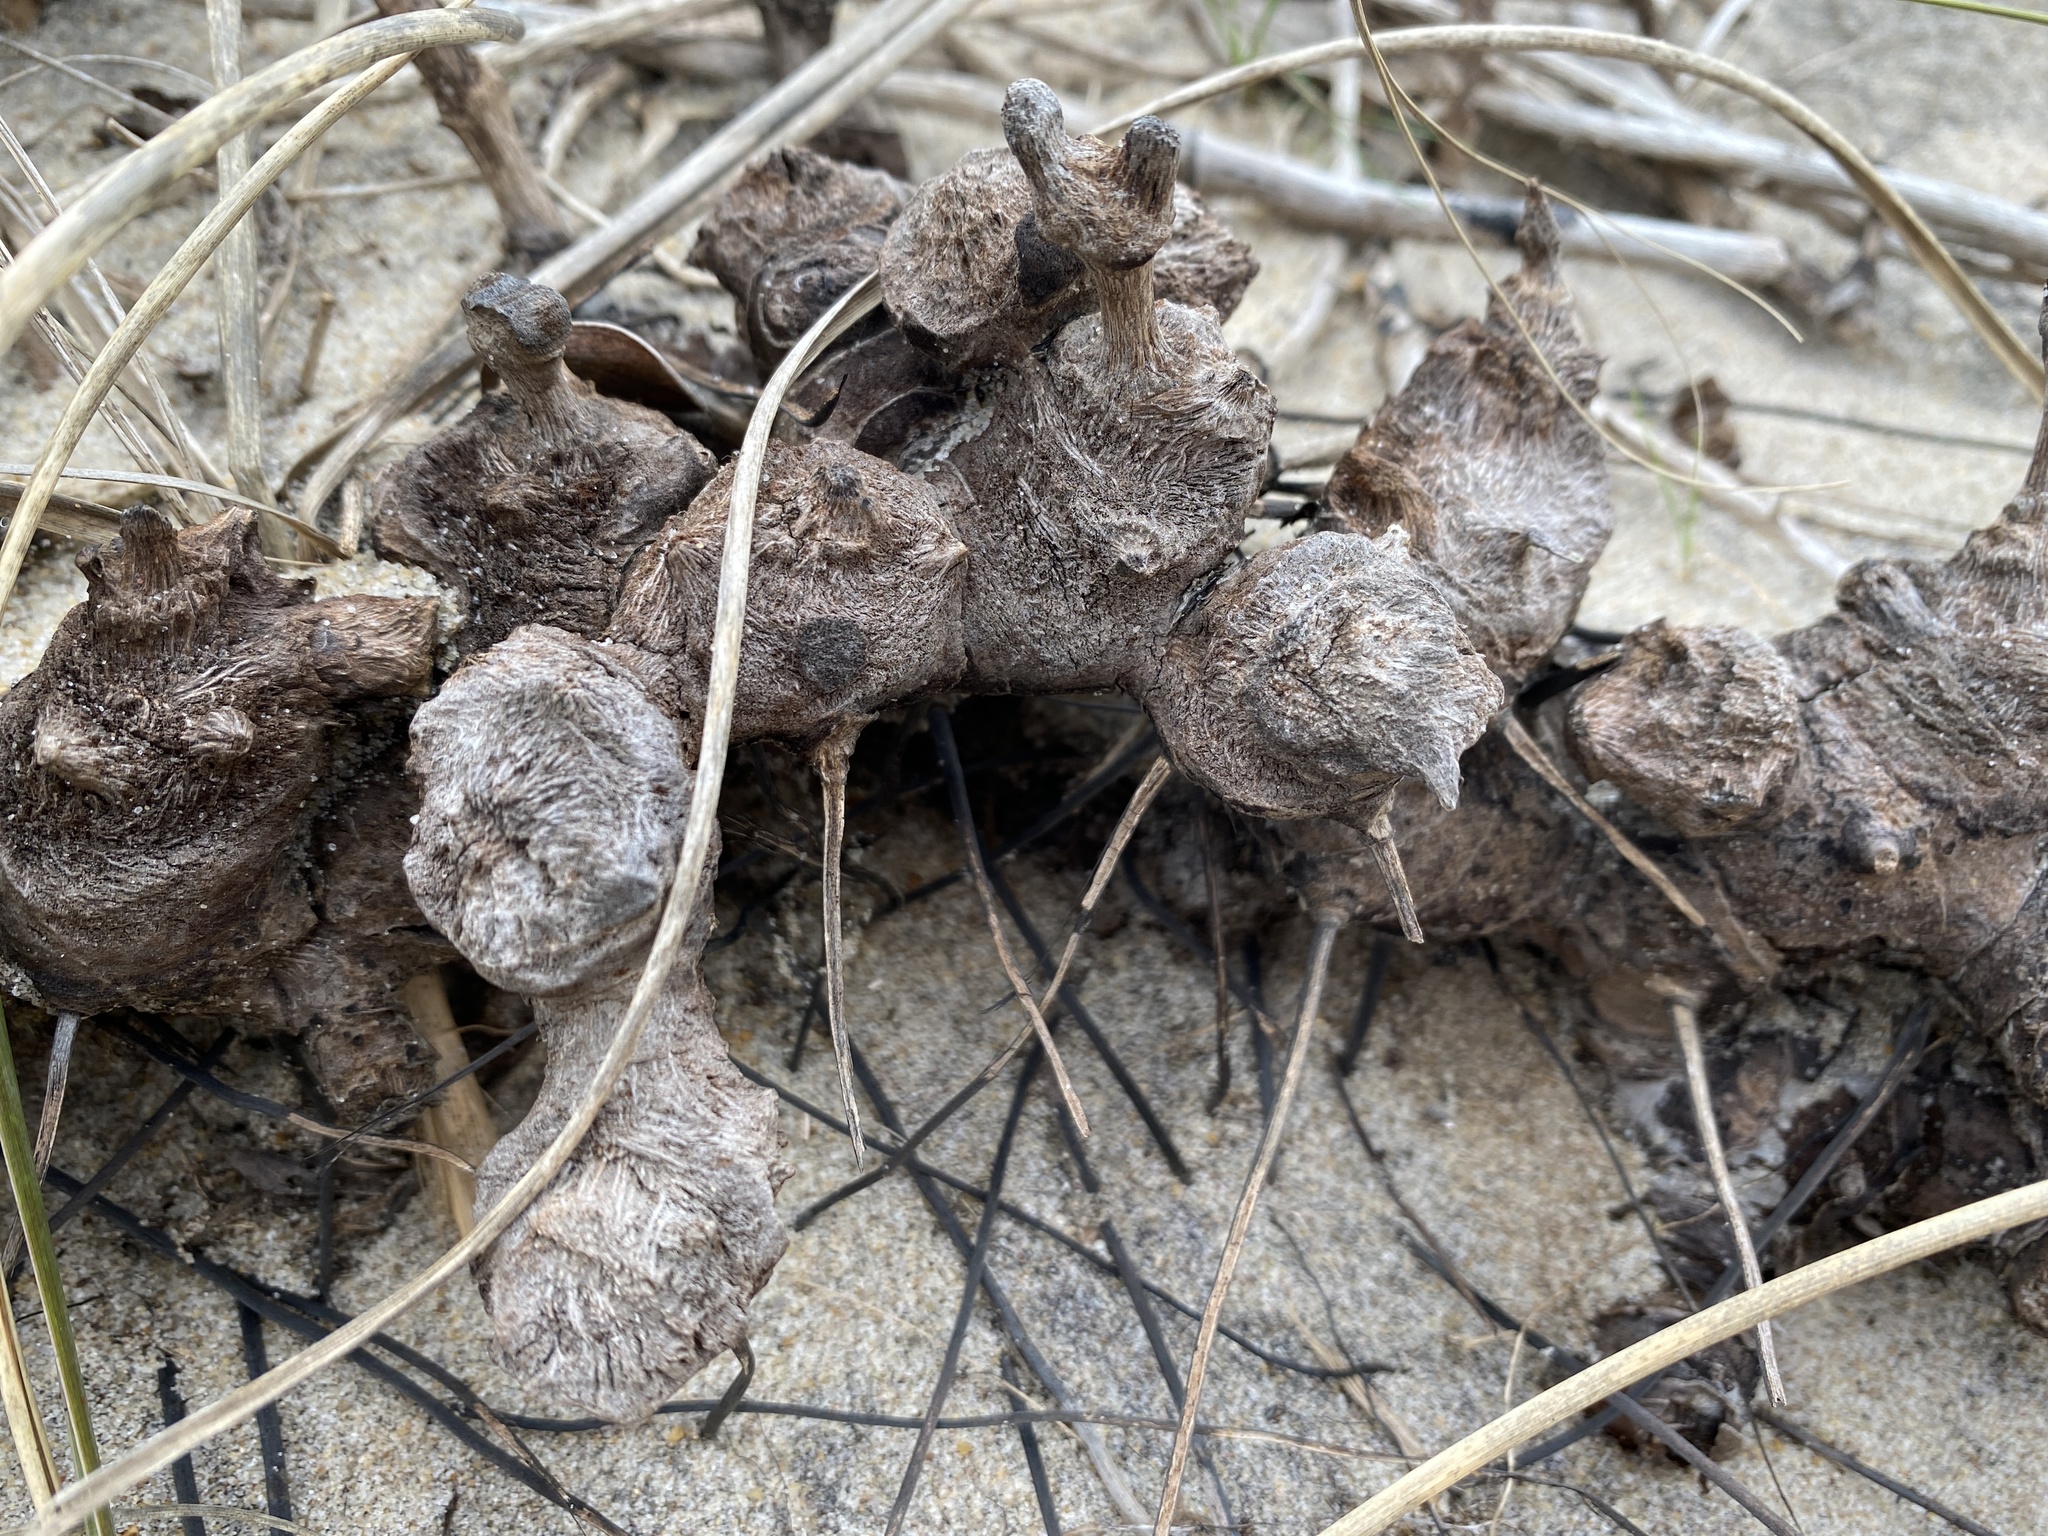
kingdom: Plantae
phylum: Tracheophyta
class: Liliopsida
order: Liliales
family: Smilacaceae
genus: Smilax
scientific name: Smilax auriculata
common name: Wild bamboo
